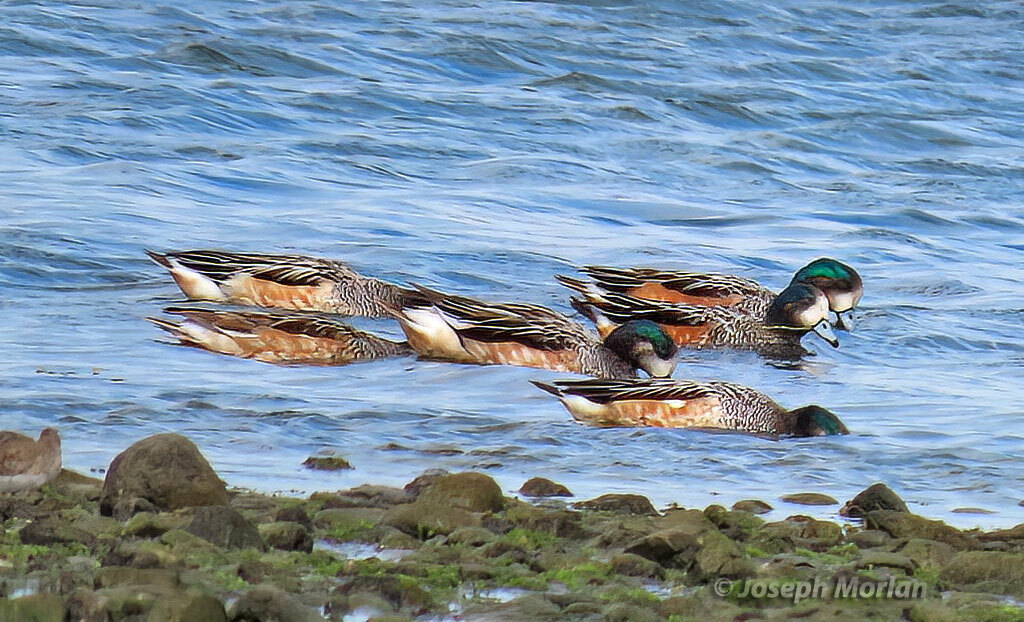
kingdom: Animalia
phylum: Chordata
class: Aves
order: Anseriformes
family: Anatidae
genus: Mareca
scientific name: Mareca sibilatrix
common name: Chiloe wigeon
